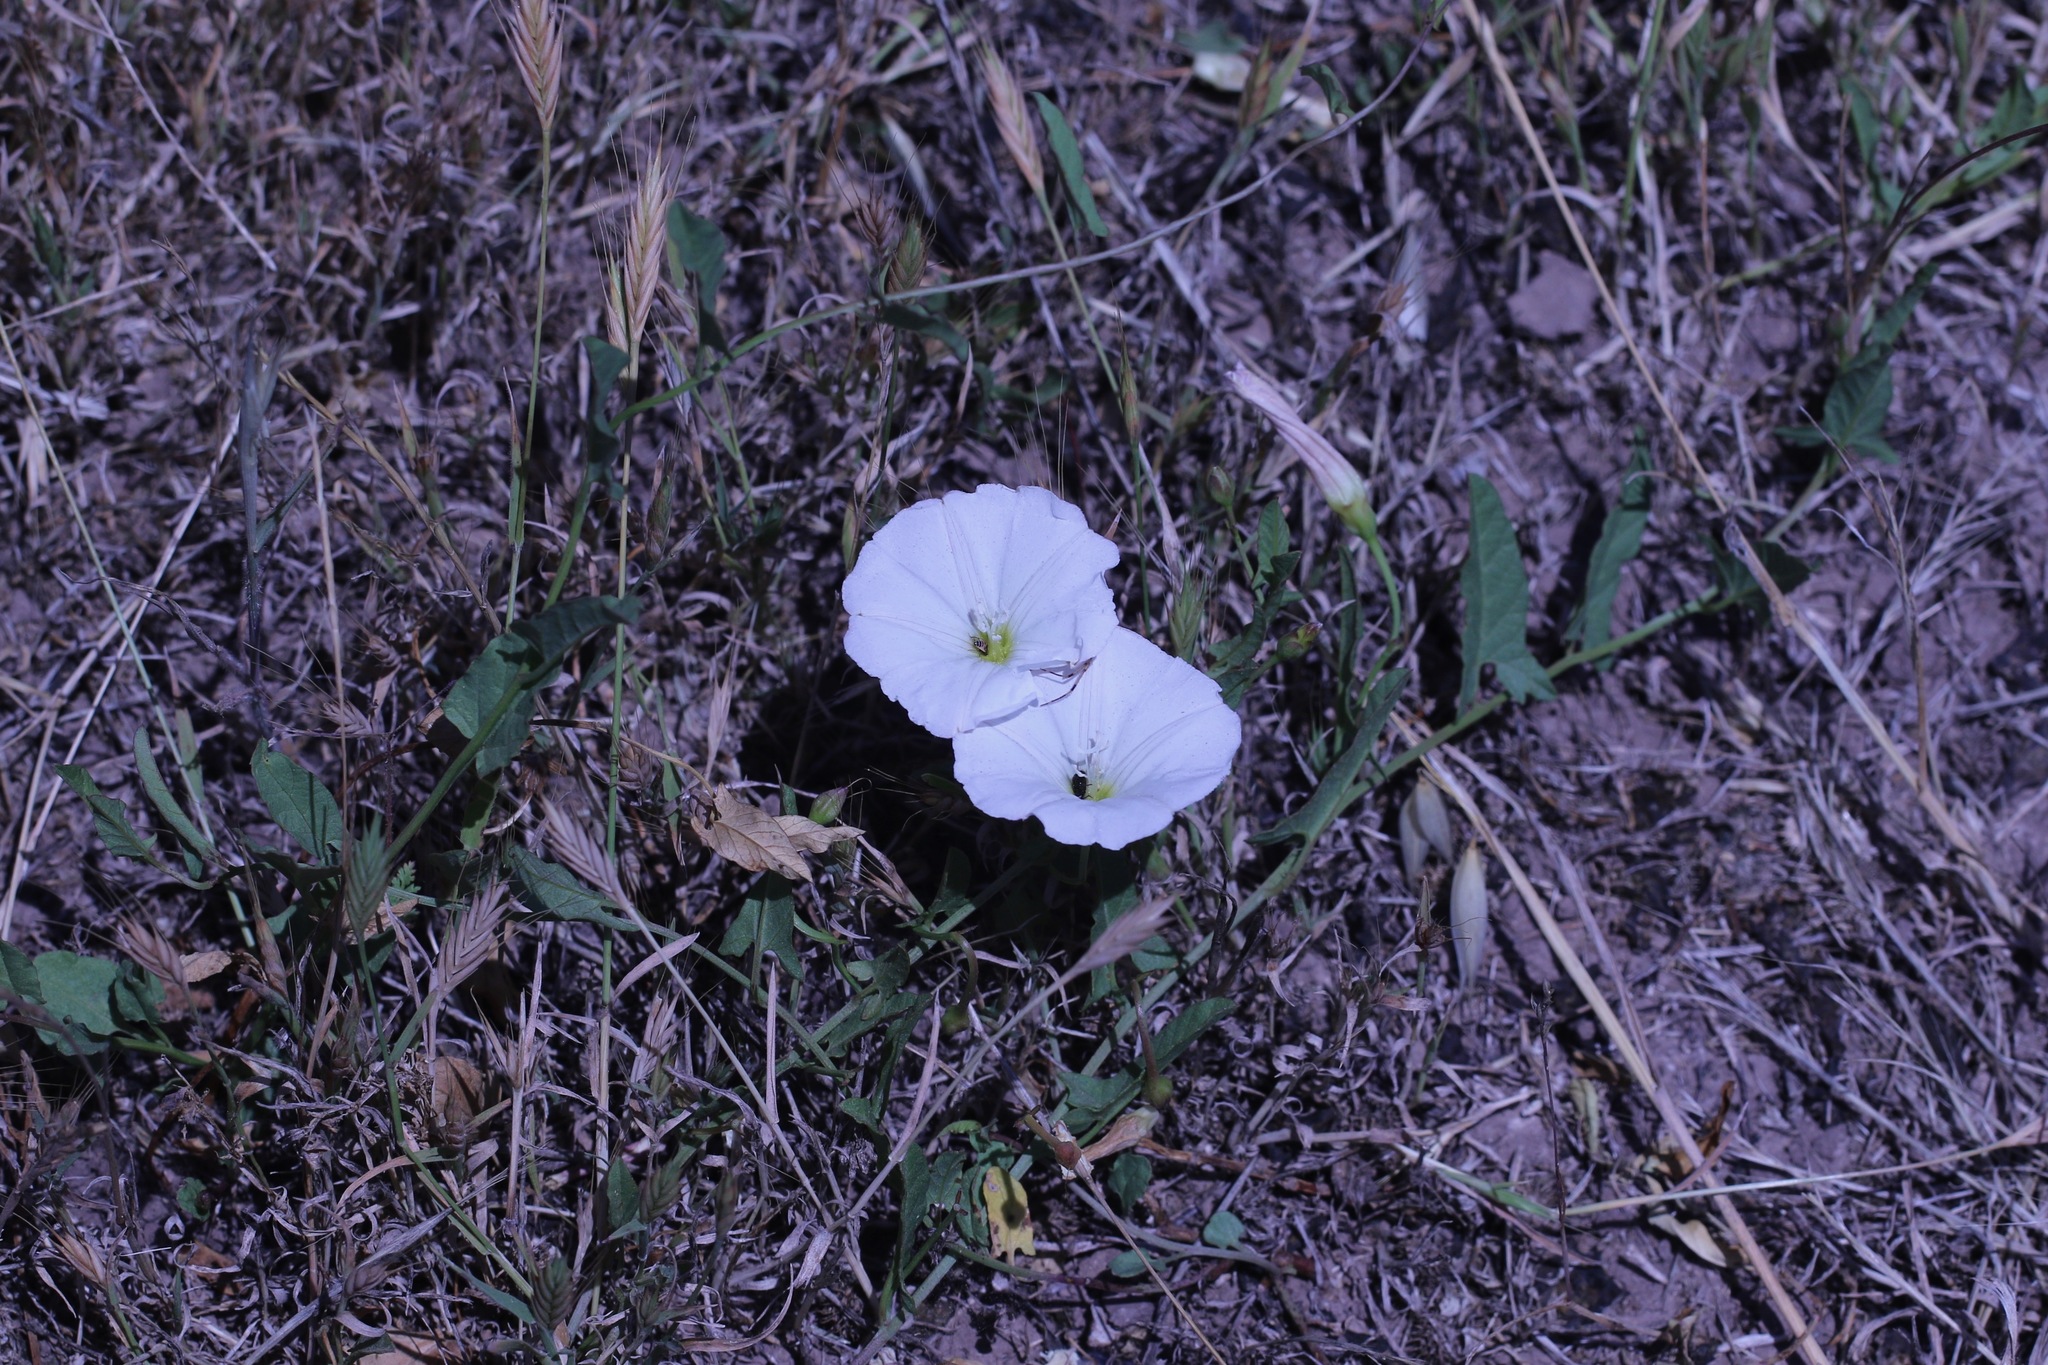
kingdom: Plantae
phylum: Tracheophyta
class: Magnoliopsida
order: Solanales
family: Convolvulaceae
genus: Convolvulus
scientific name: Convolvulus arvensis
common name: Field bindweed
